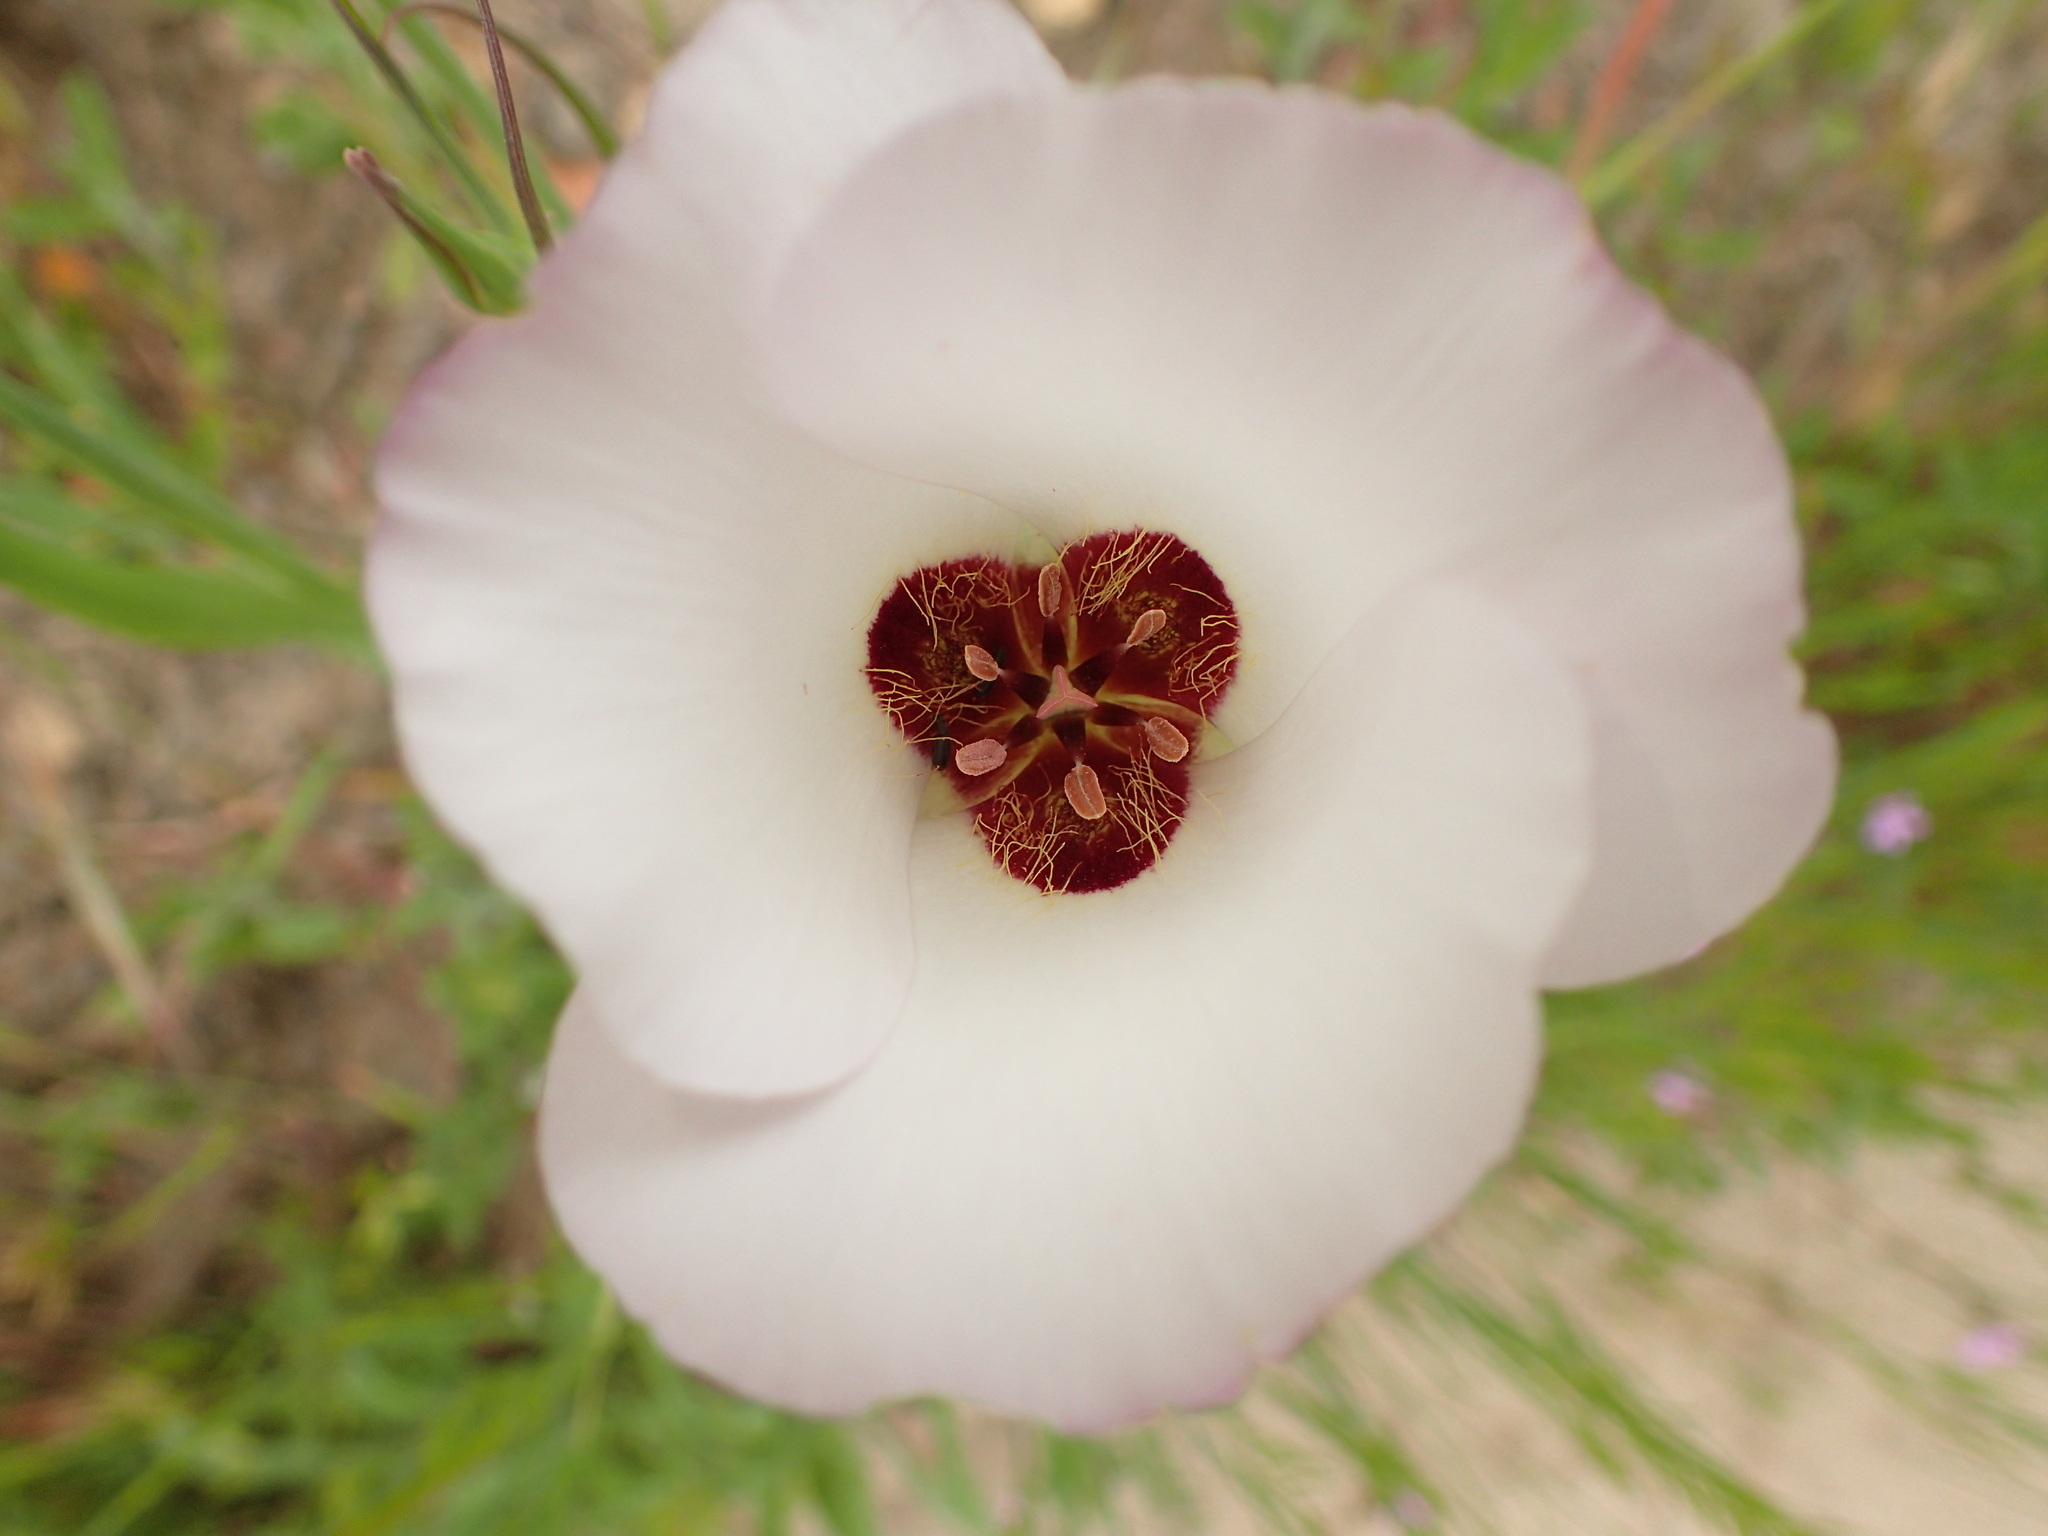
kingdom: Plantae
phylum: Tracheophyta
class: Liliopsida
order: Liliales
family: Liliaceae
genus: Calochortus
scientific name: Calochortus catalinae
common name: Catalina mariposa-lily
